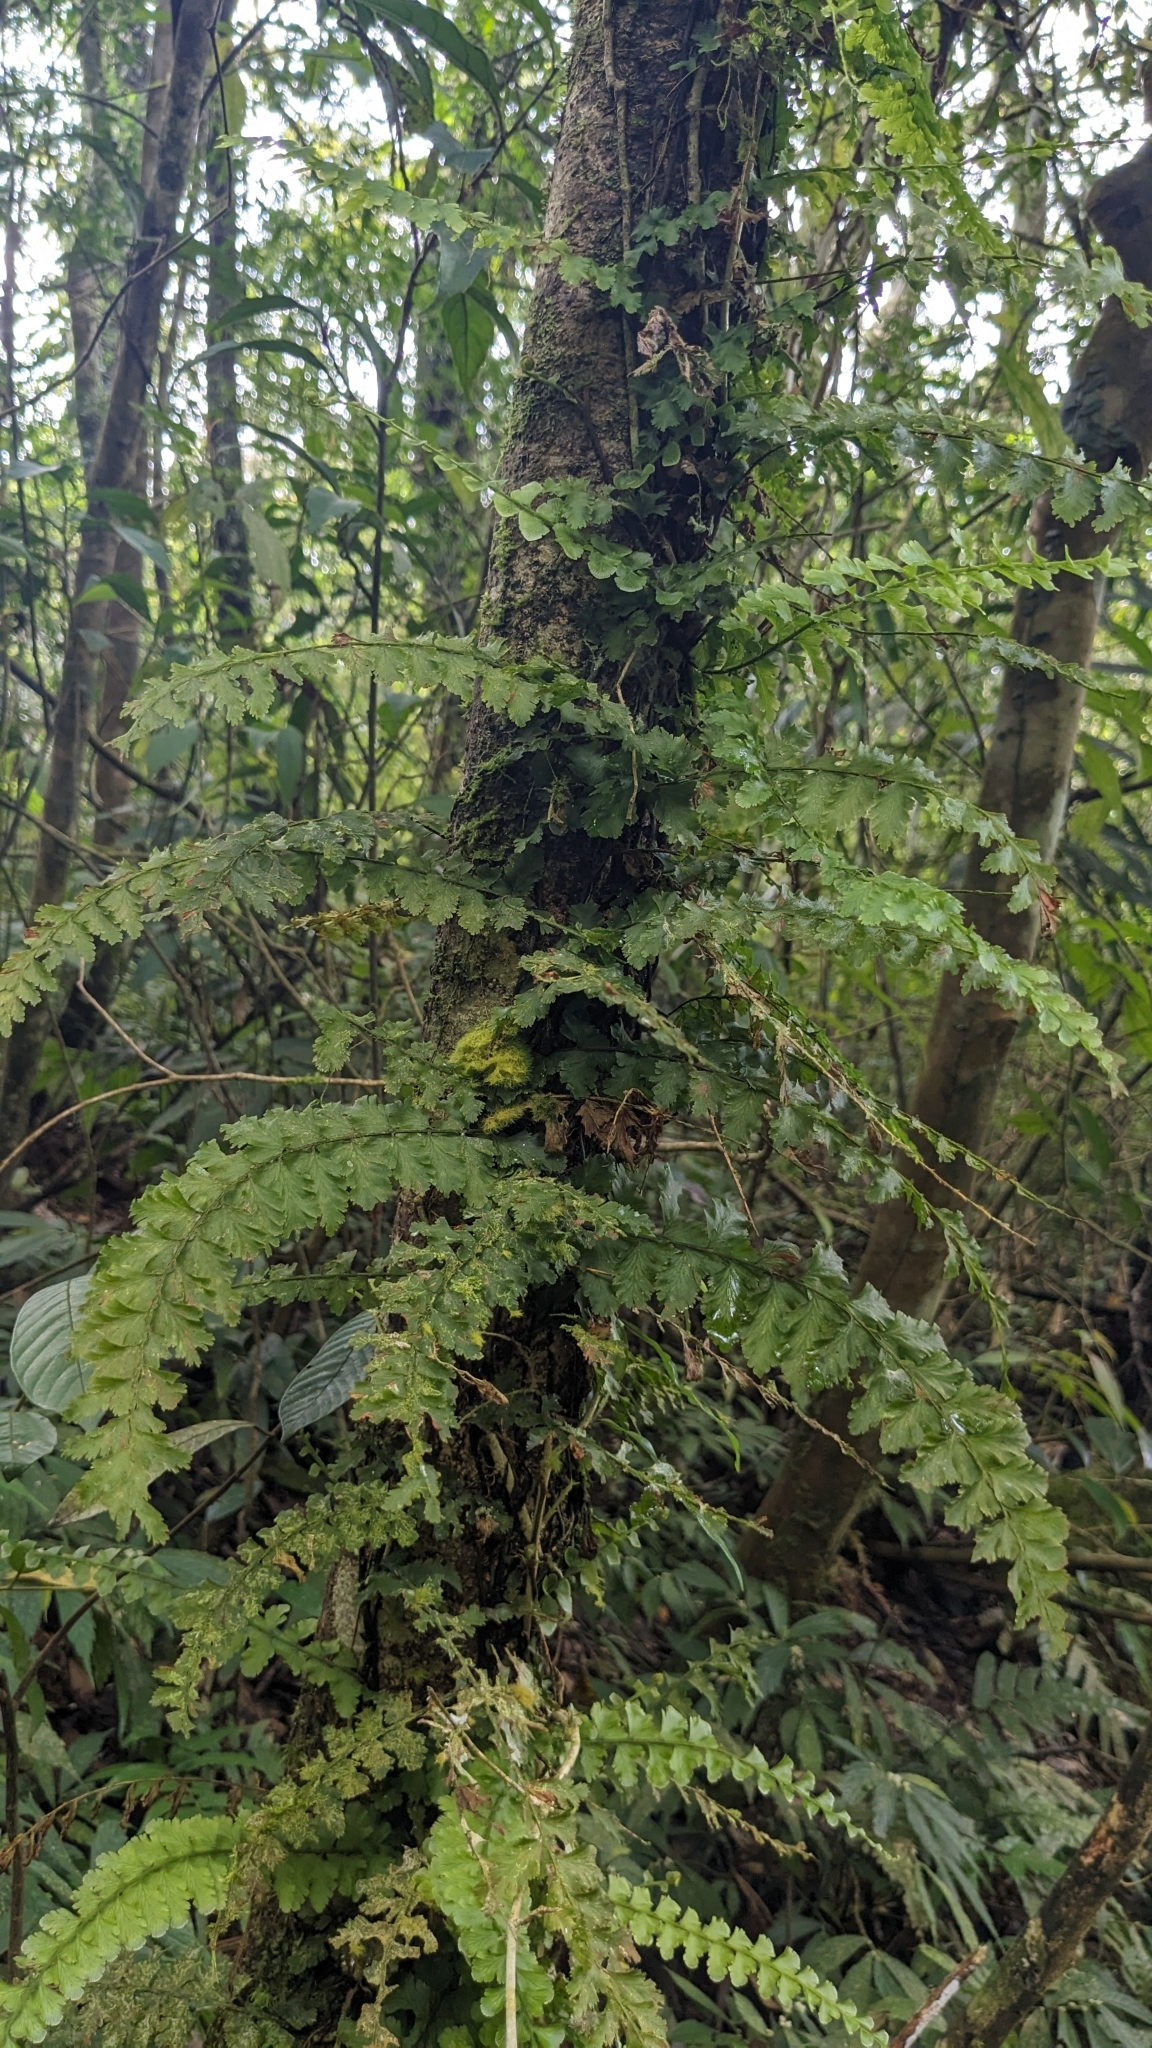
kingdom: Plantae
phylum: Tracheophyta
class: Polypodiopsida
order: Hymenophyllales
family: Hymenophyllaceae
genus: Vandenboschia
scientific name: Vandenboschia auriculata
